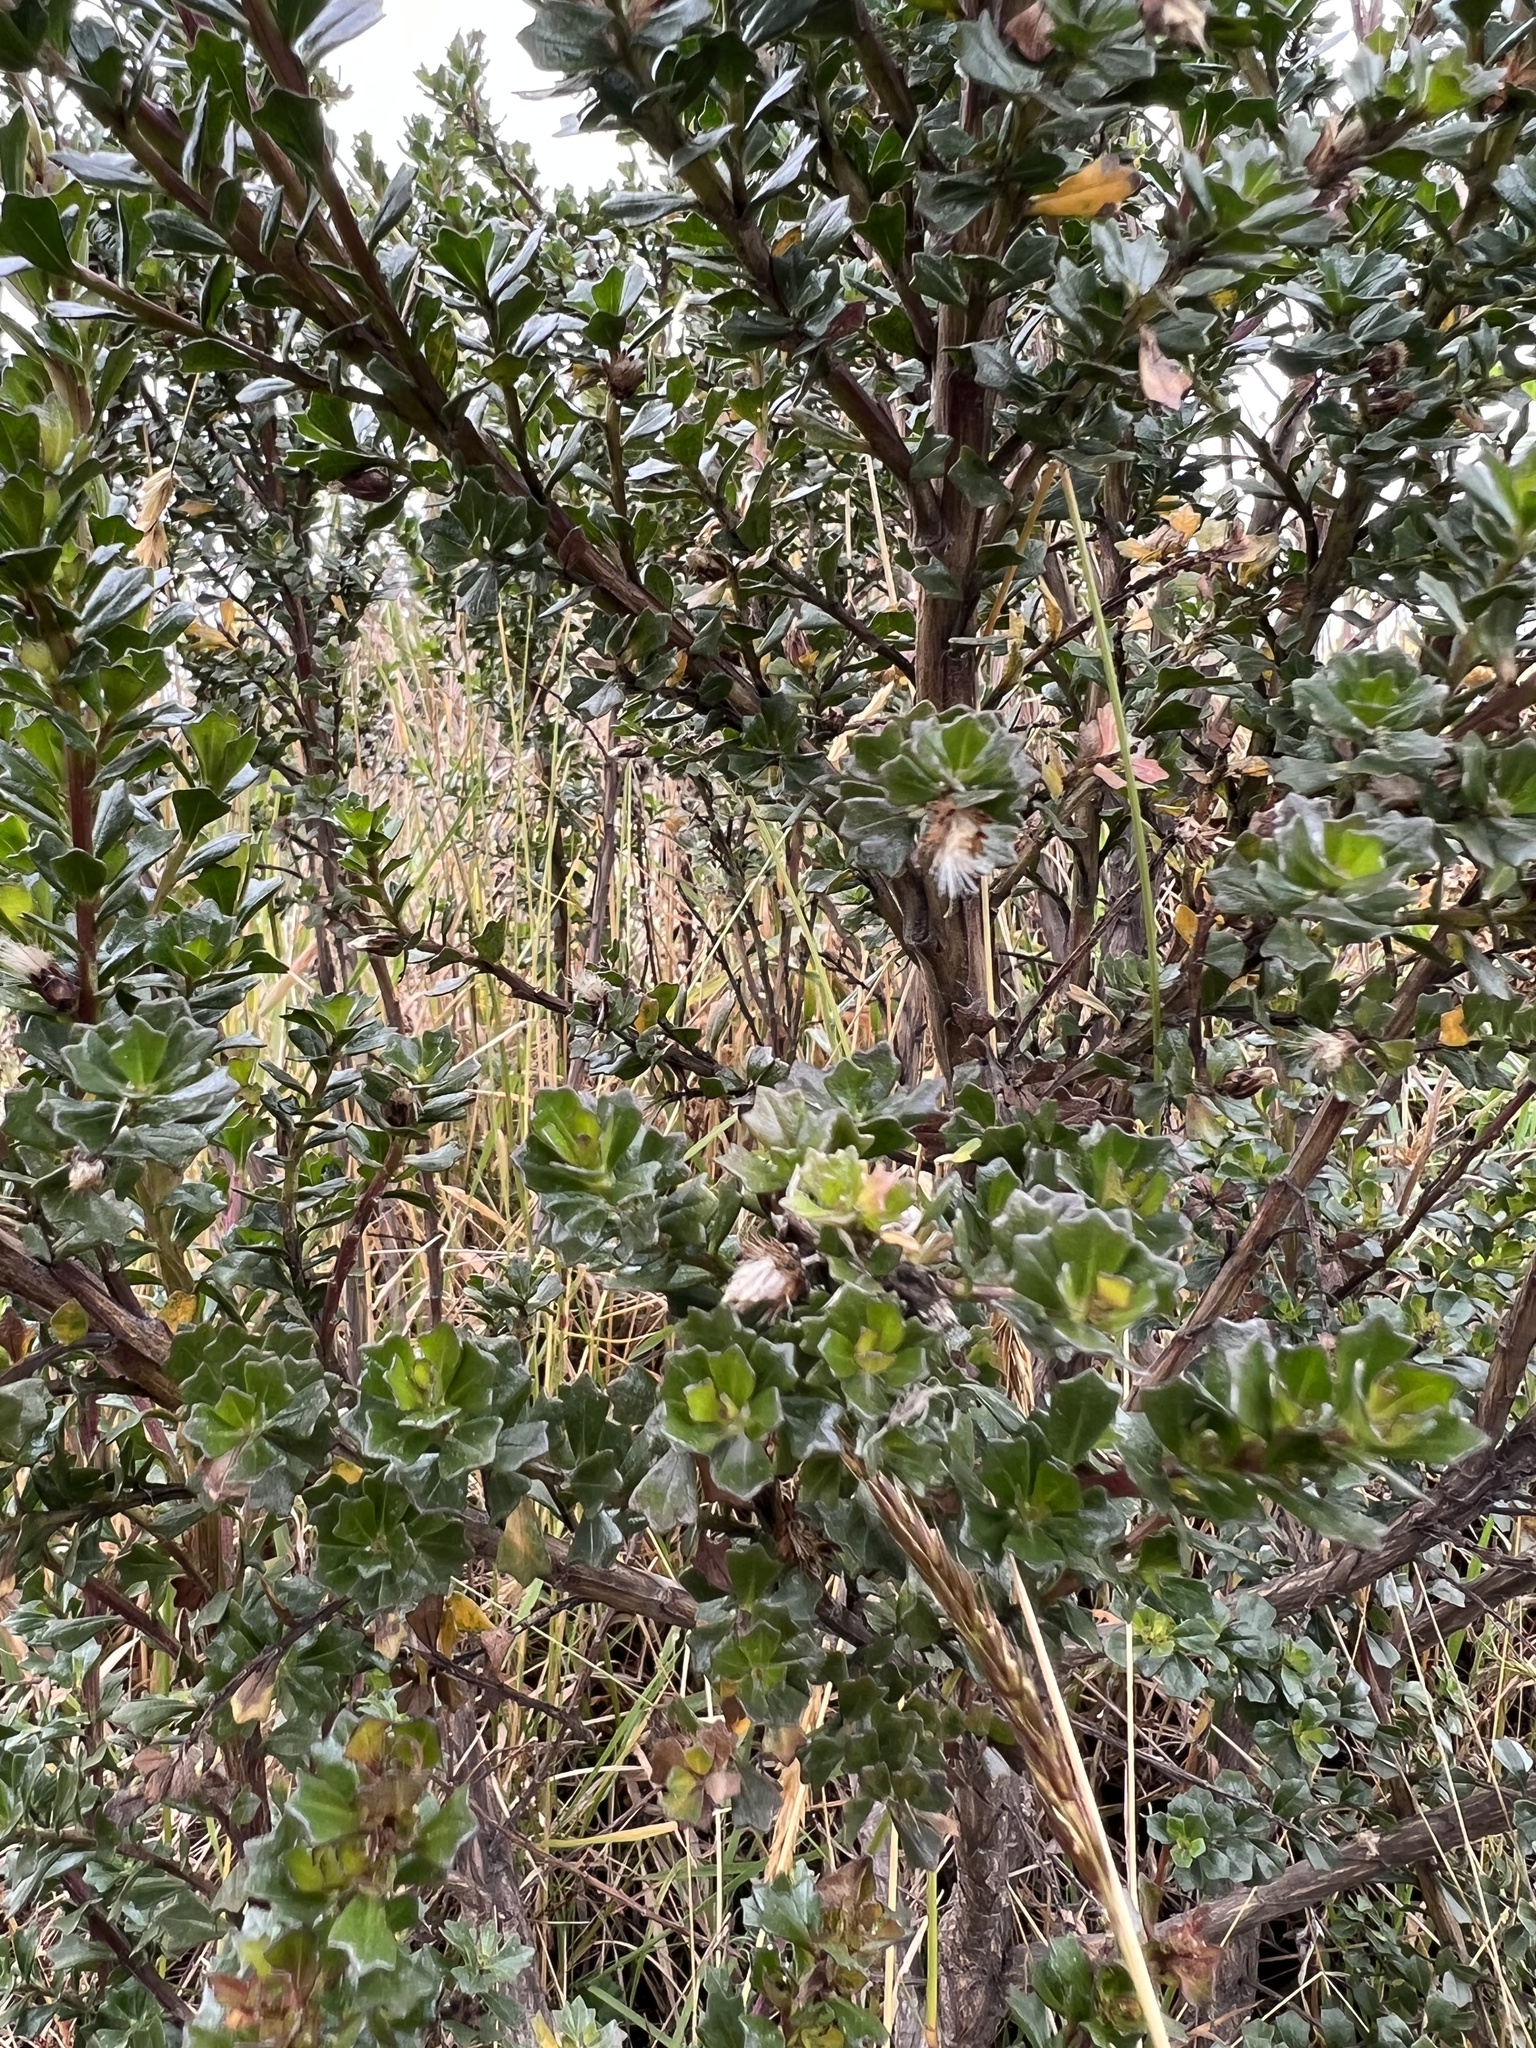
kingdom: Plantae
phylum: Tracheophyta
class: Magnoliopsida
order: Asterales
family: Asteraceae
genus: Baccharis
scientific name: Baccharis tricuneata
